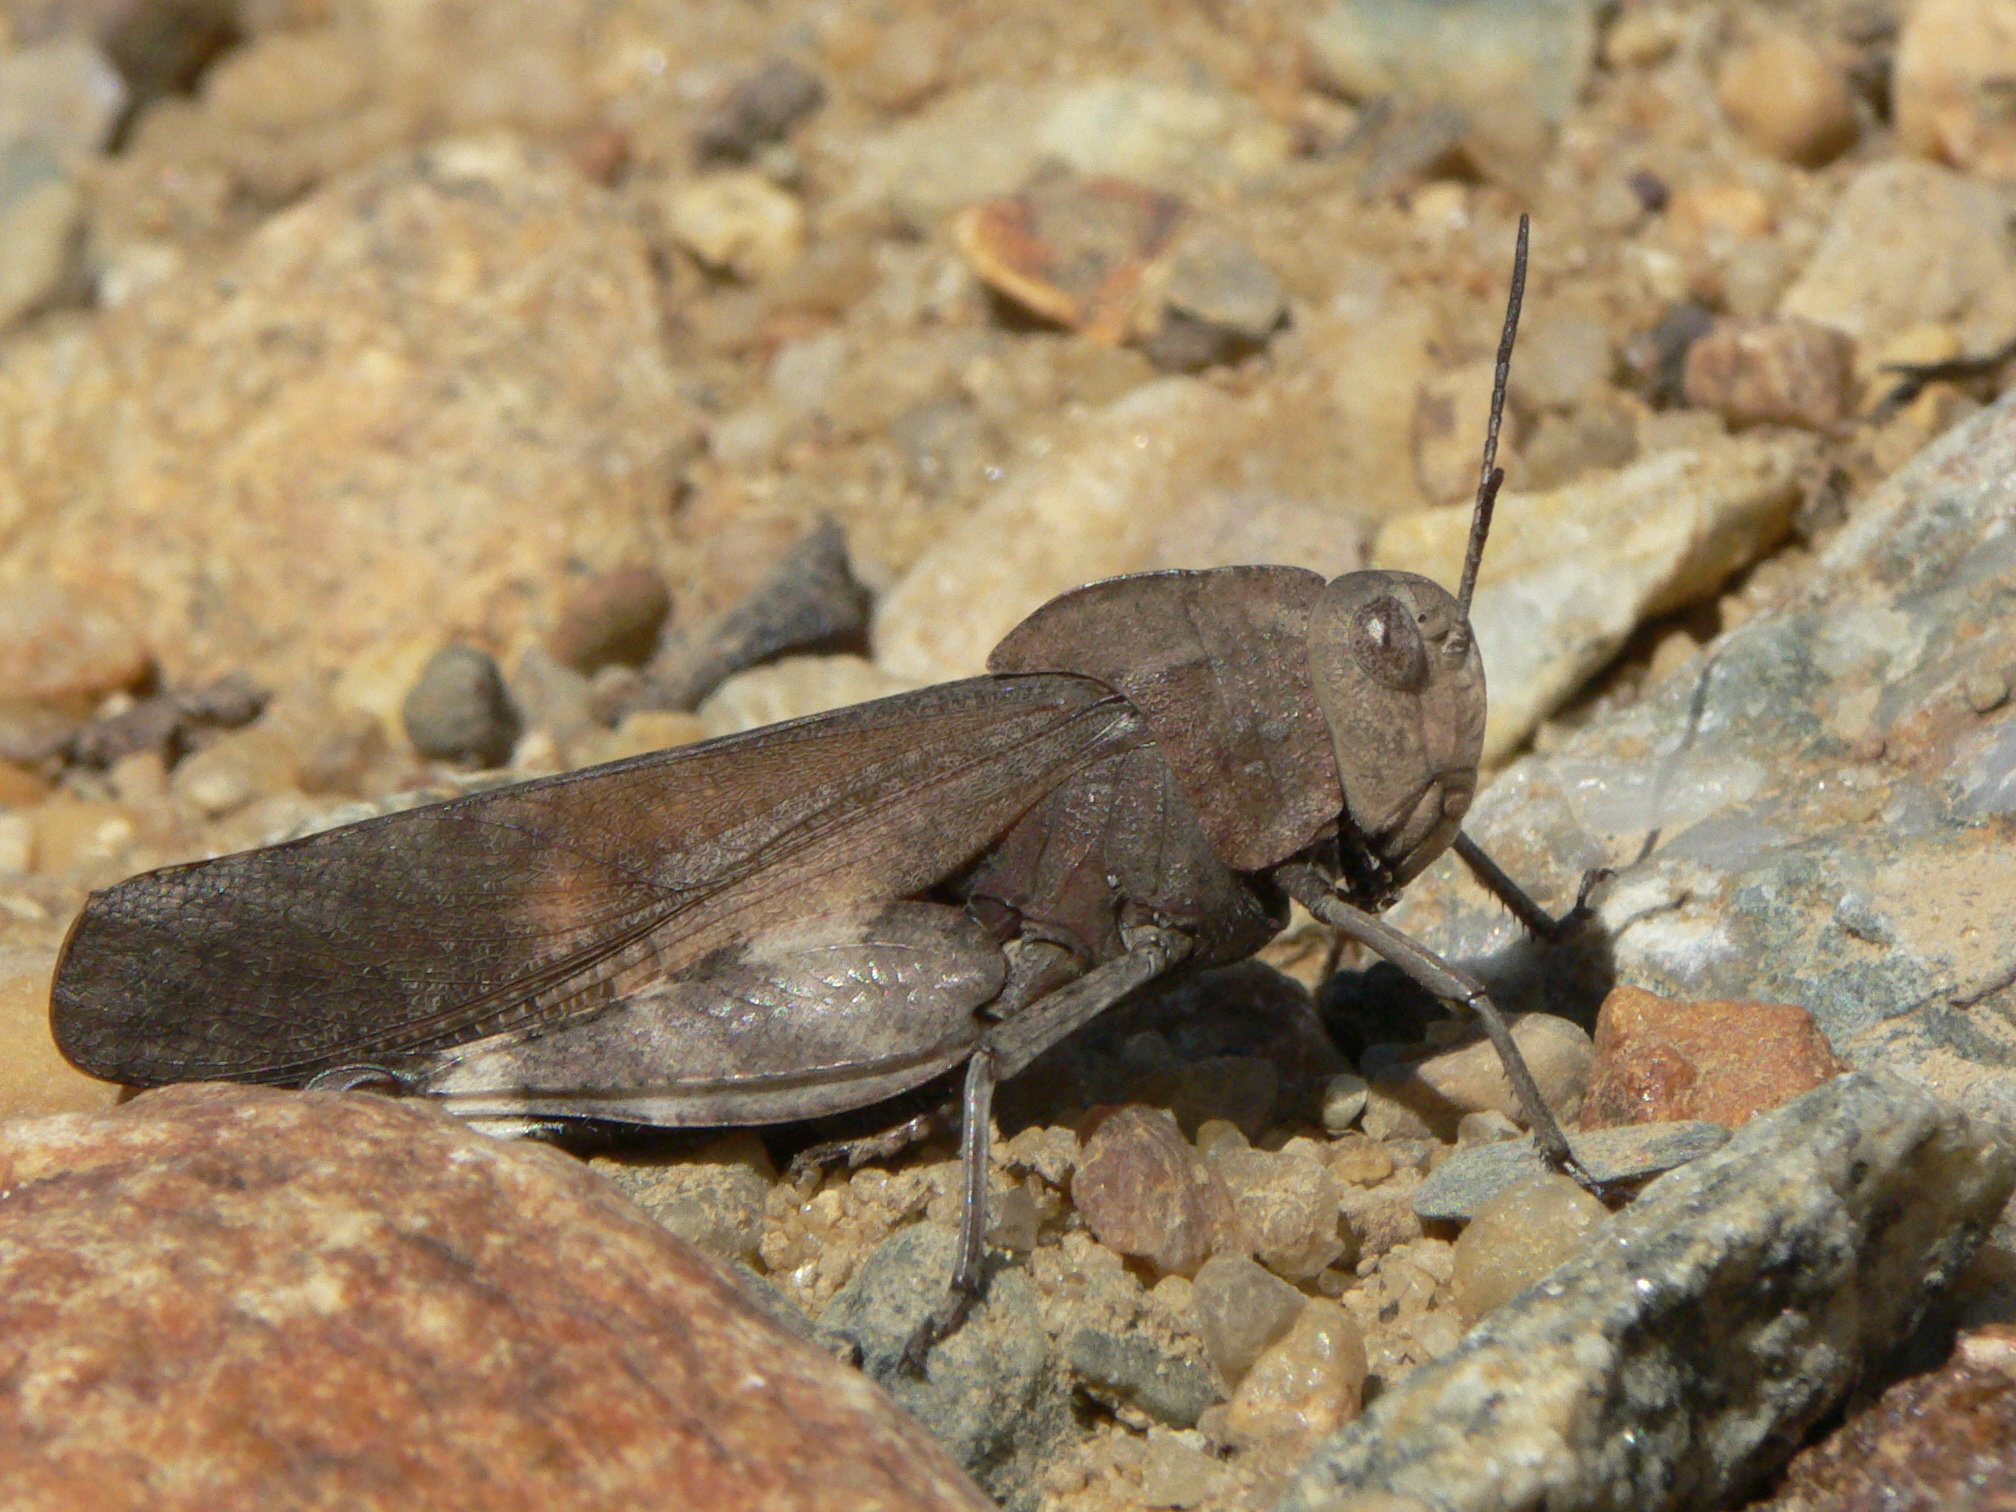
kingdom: Animalia
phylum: Arthropoda
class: Insecta
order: Orthoptera
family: Acrididae
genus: Arphia
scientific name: Arphia xanthoptera
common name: Autumn yellow-winged grasshopper
